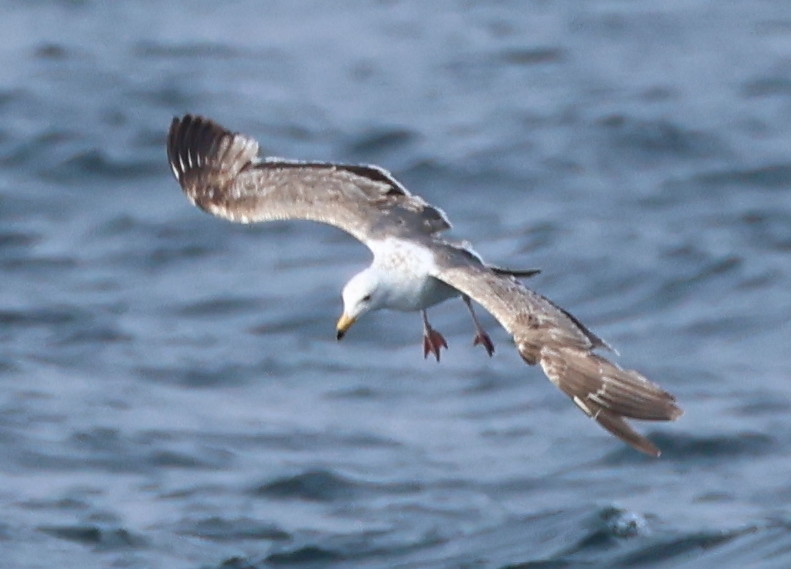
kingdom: Animalia
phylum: Chordata
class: Aves
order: Charadriiformes
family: Laridae
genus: Larus
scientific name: Larus occidentalis
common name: Western gull
